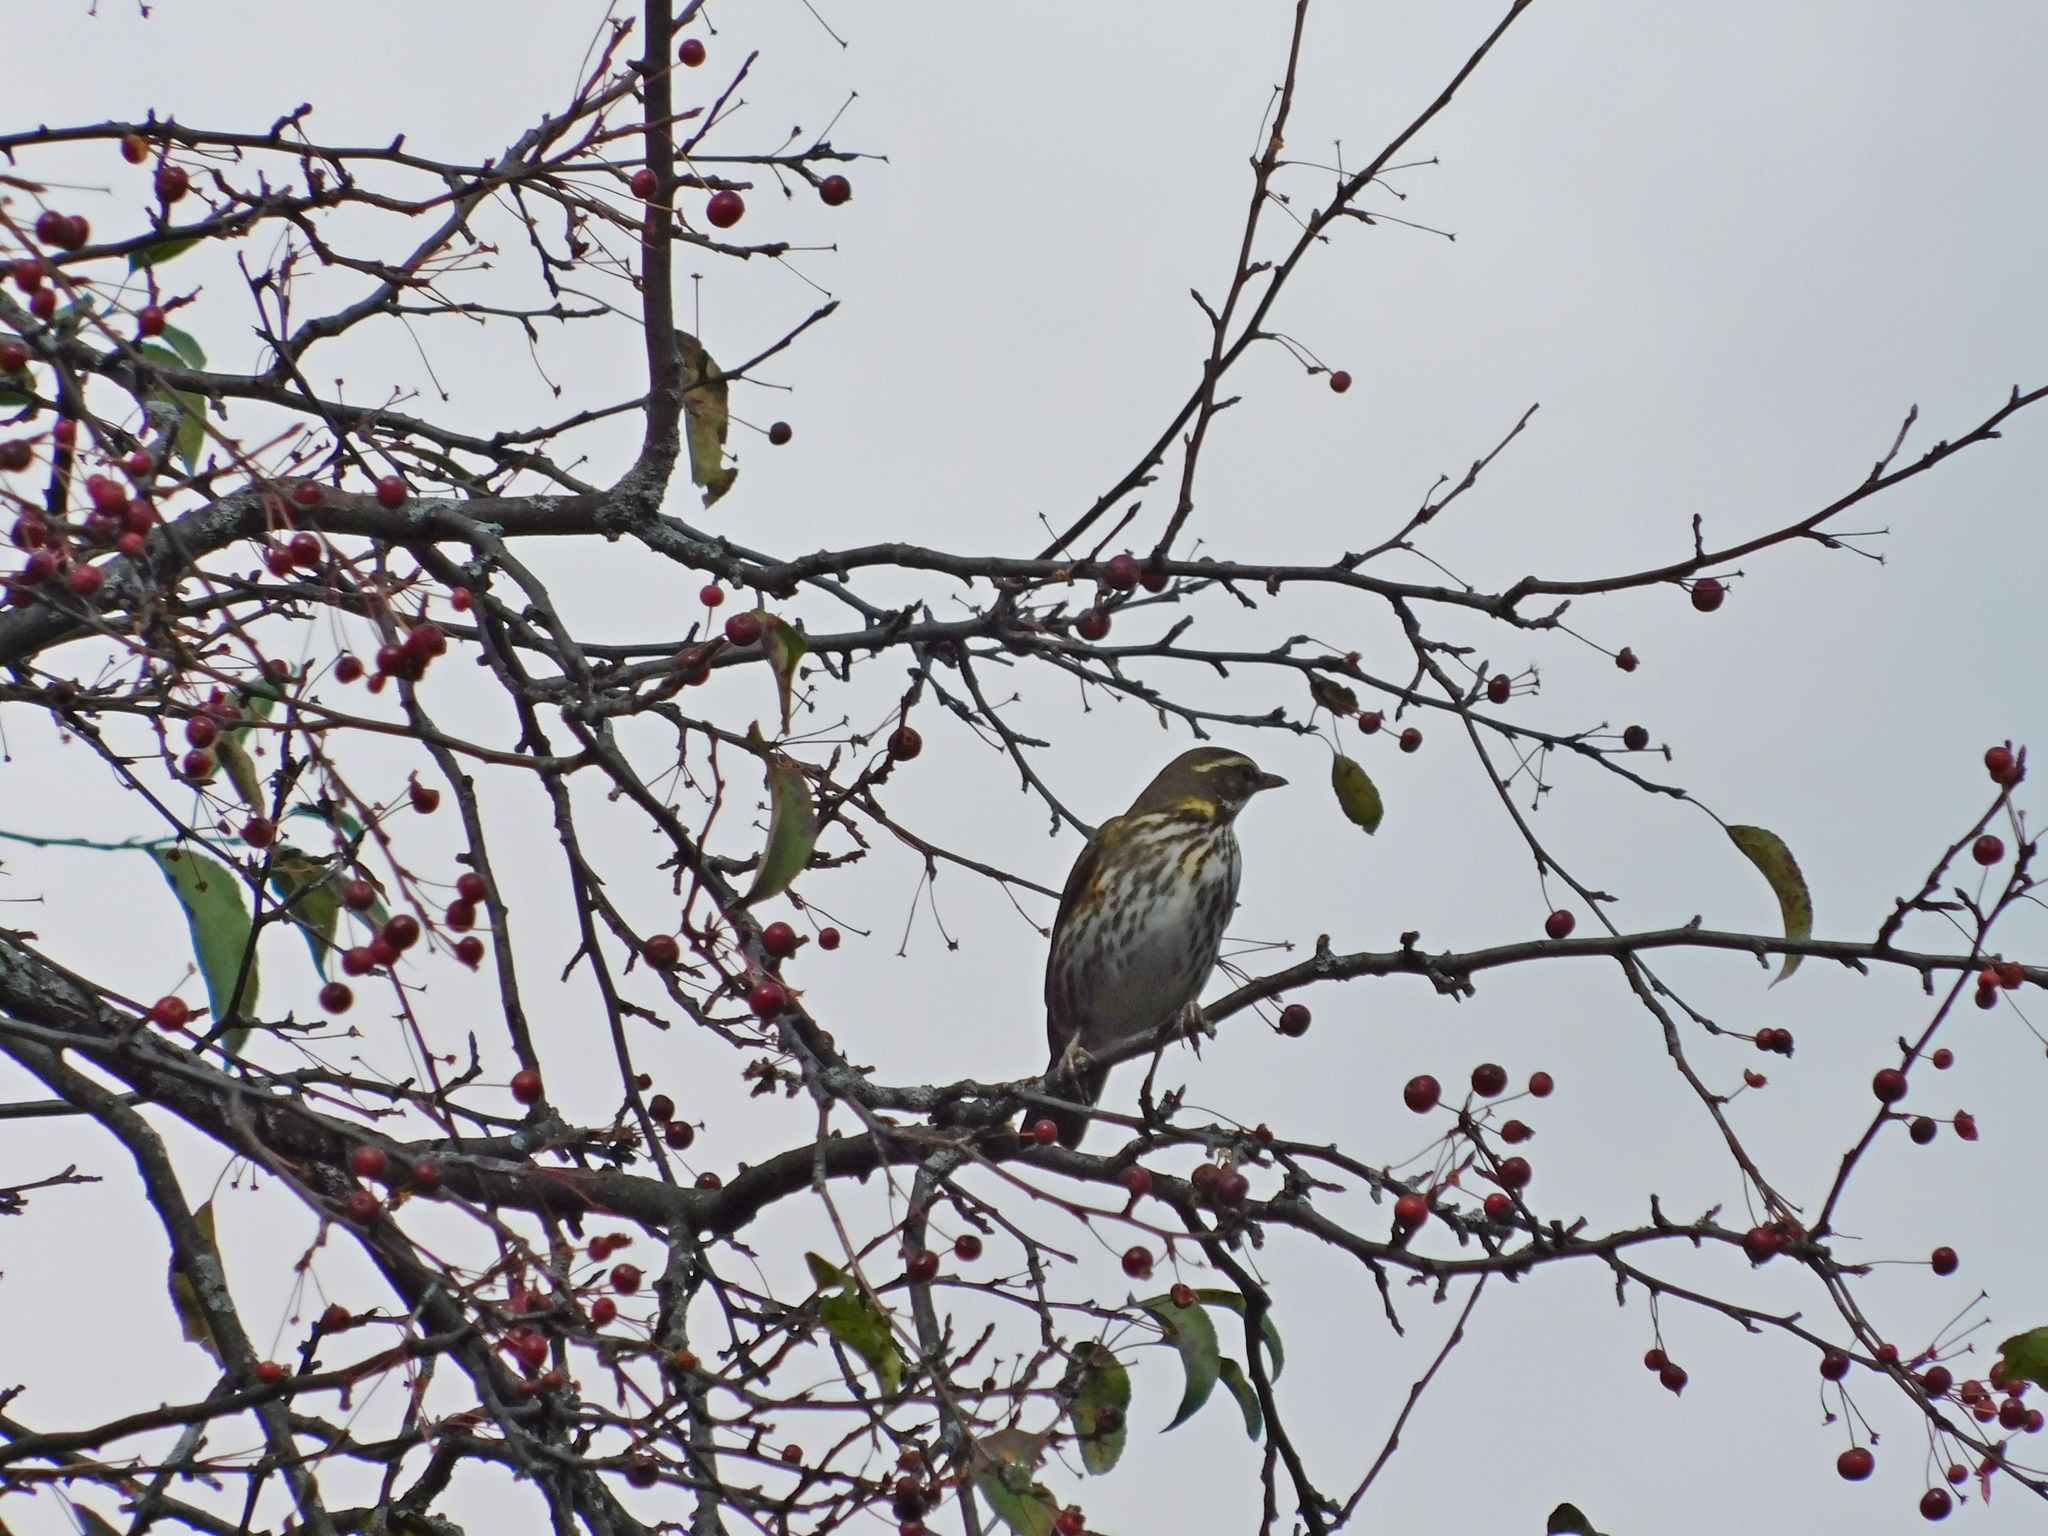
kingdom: Animalia
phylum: Chordata
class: Aves
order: Passeriformes
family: Turdidae
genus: Turdus
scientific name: Turdus iliacus
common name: Redwing
